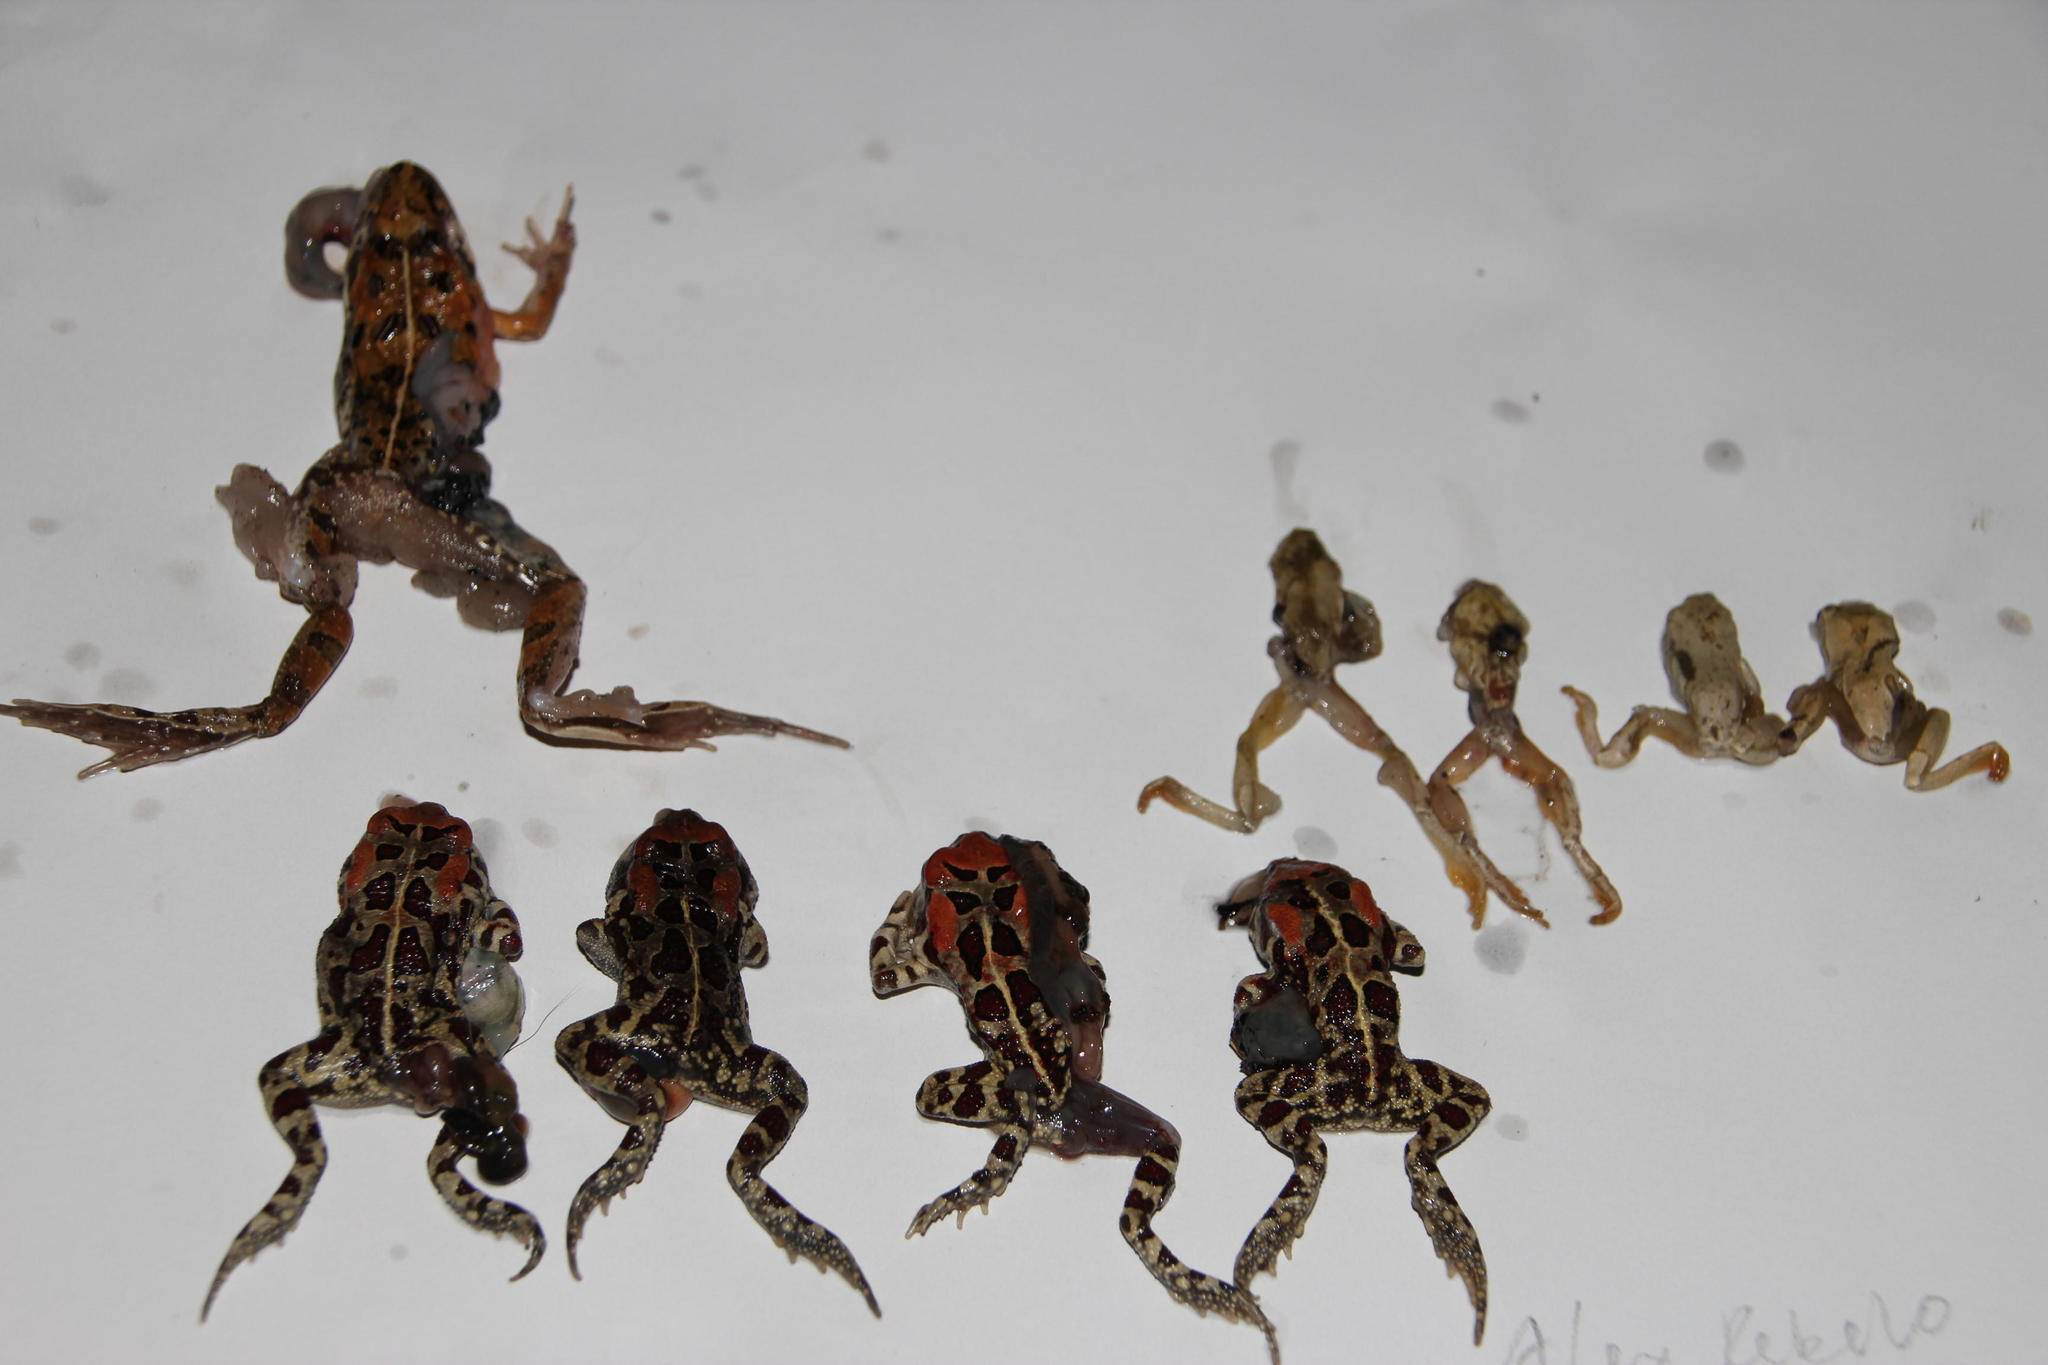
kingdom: Animalia
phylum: Chordata
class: Amphibia
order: Anura
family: Pyxicephalidae
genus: Strongylopus
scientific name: Strongylopus grayii
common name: Gray's stream frog
